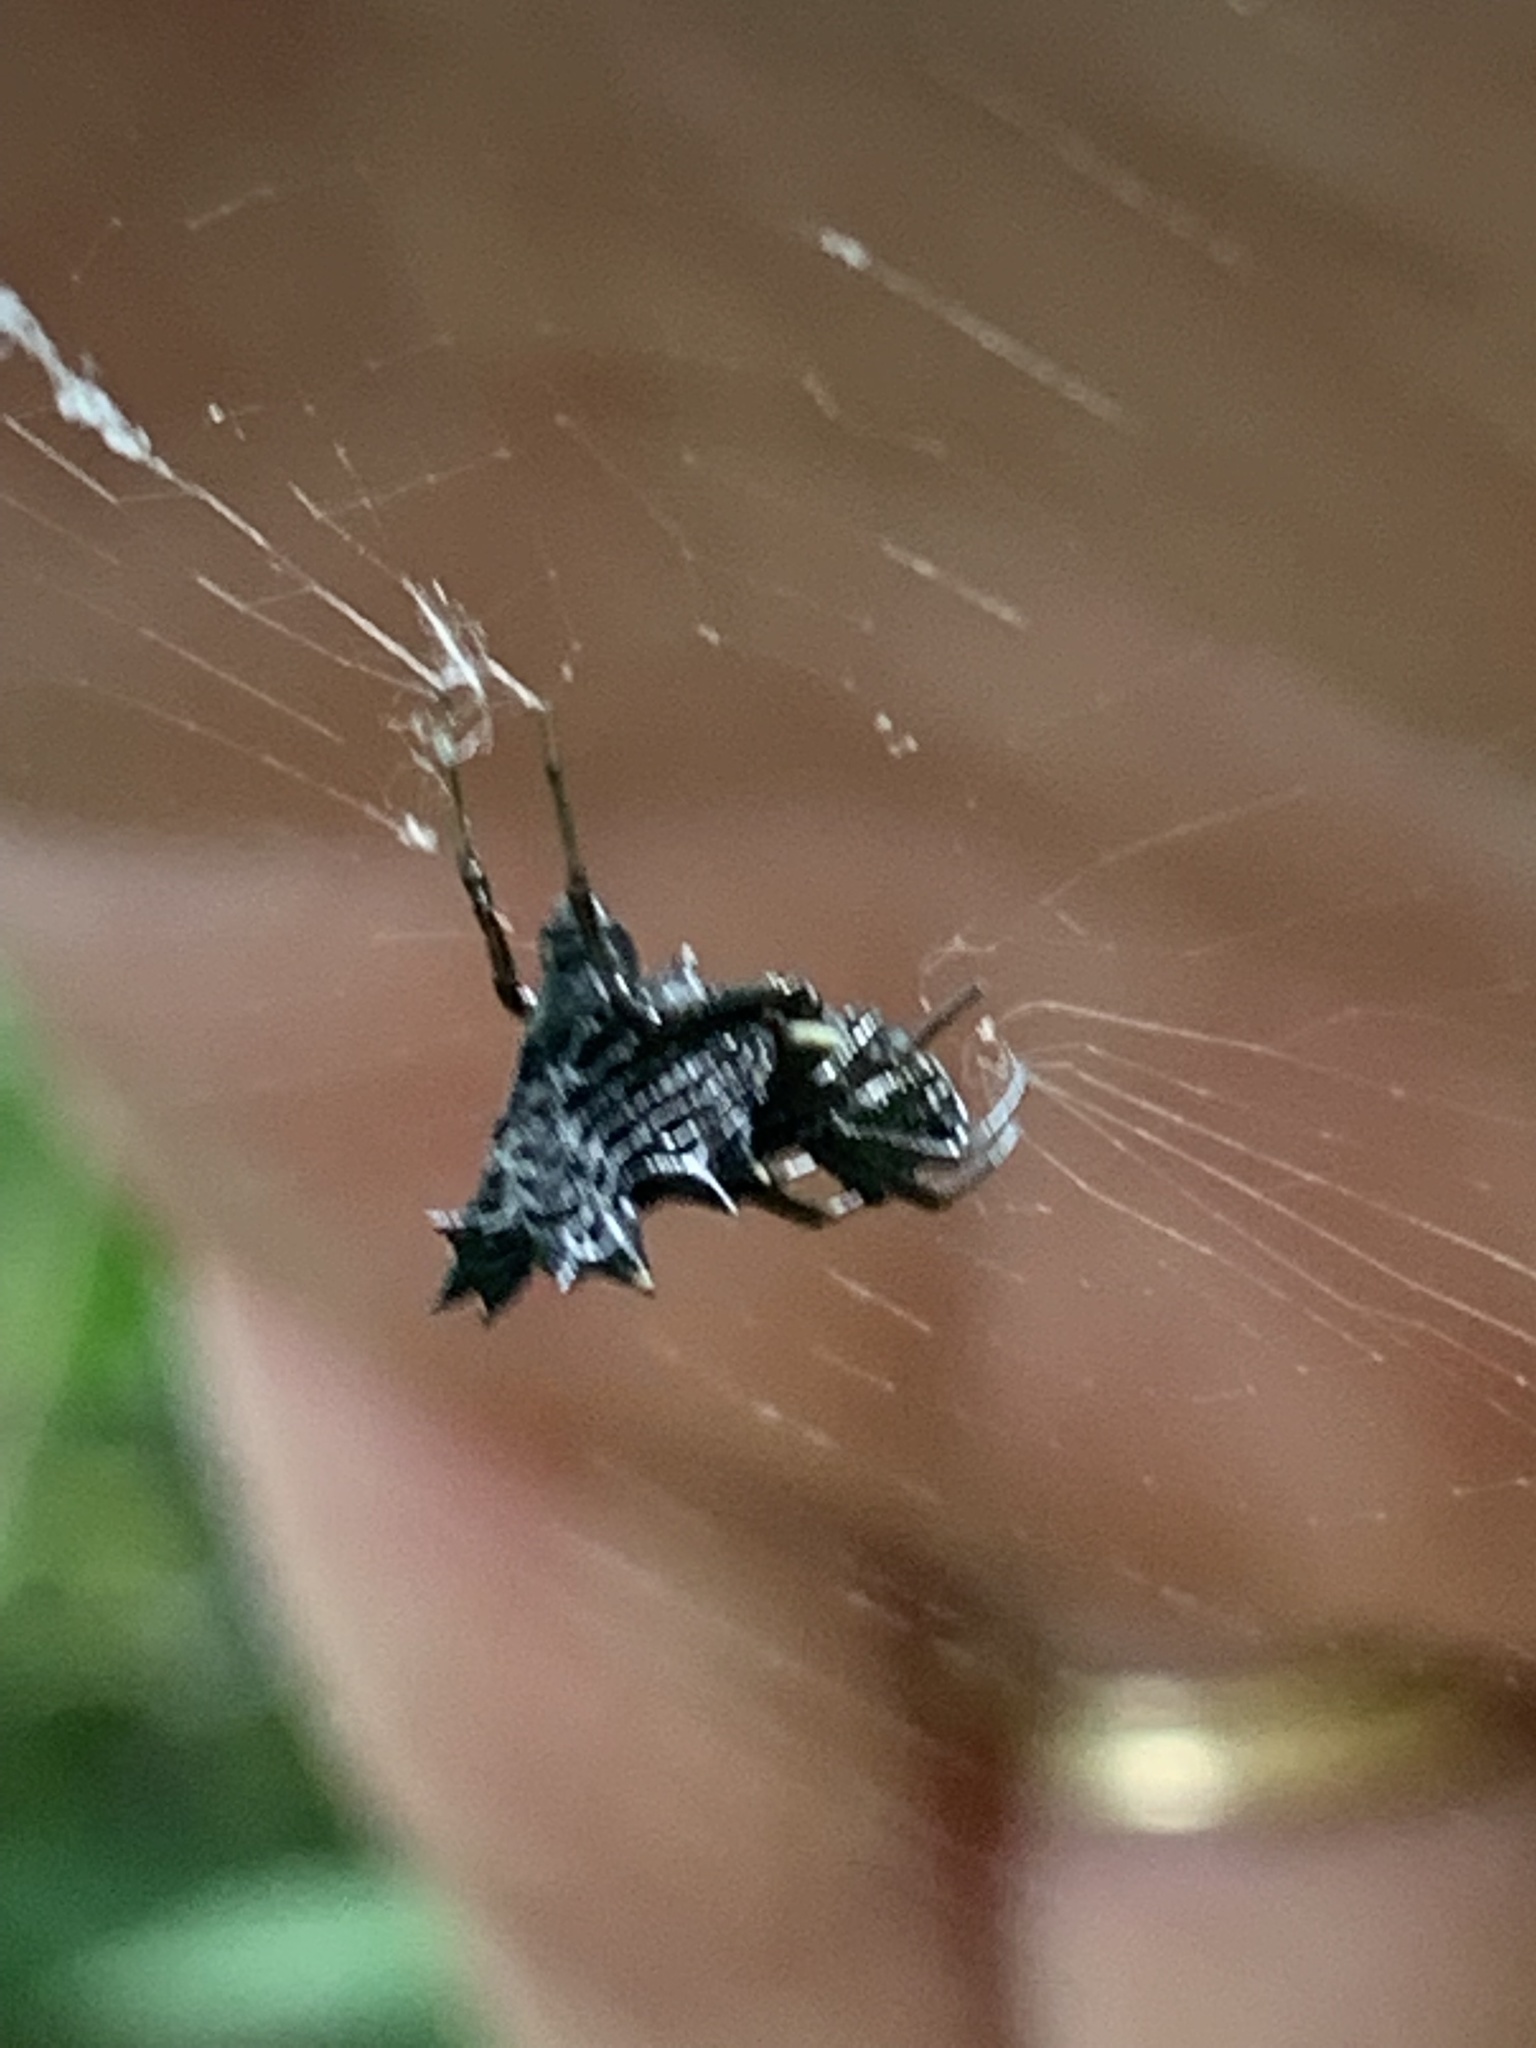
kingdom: Animalia
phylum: Arthropoda
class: Arachnida
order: Araneae
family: Araneidae
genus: Micrathena
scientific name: Micrathena gracilis
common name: Orb weavers
